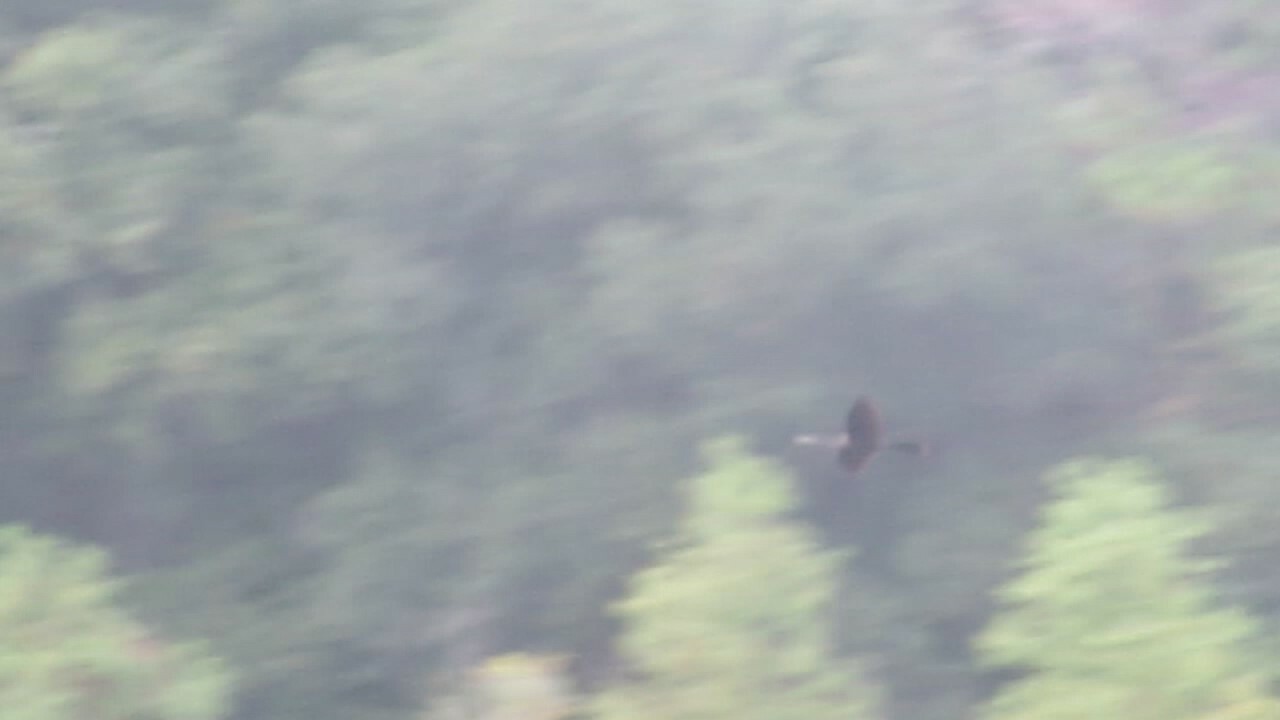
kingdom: Animalia
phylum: Chordata
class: Aves
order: Suliformes
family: Anhingidae
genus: Anhinga
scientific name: Anhinga anhinga
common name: Anhinga
